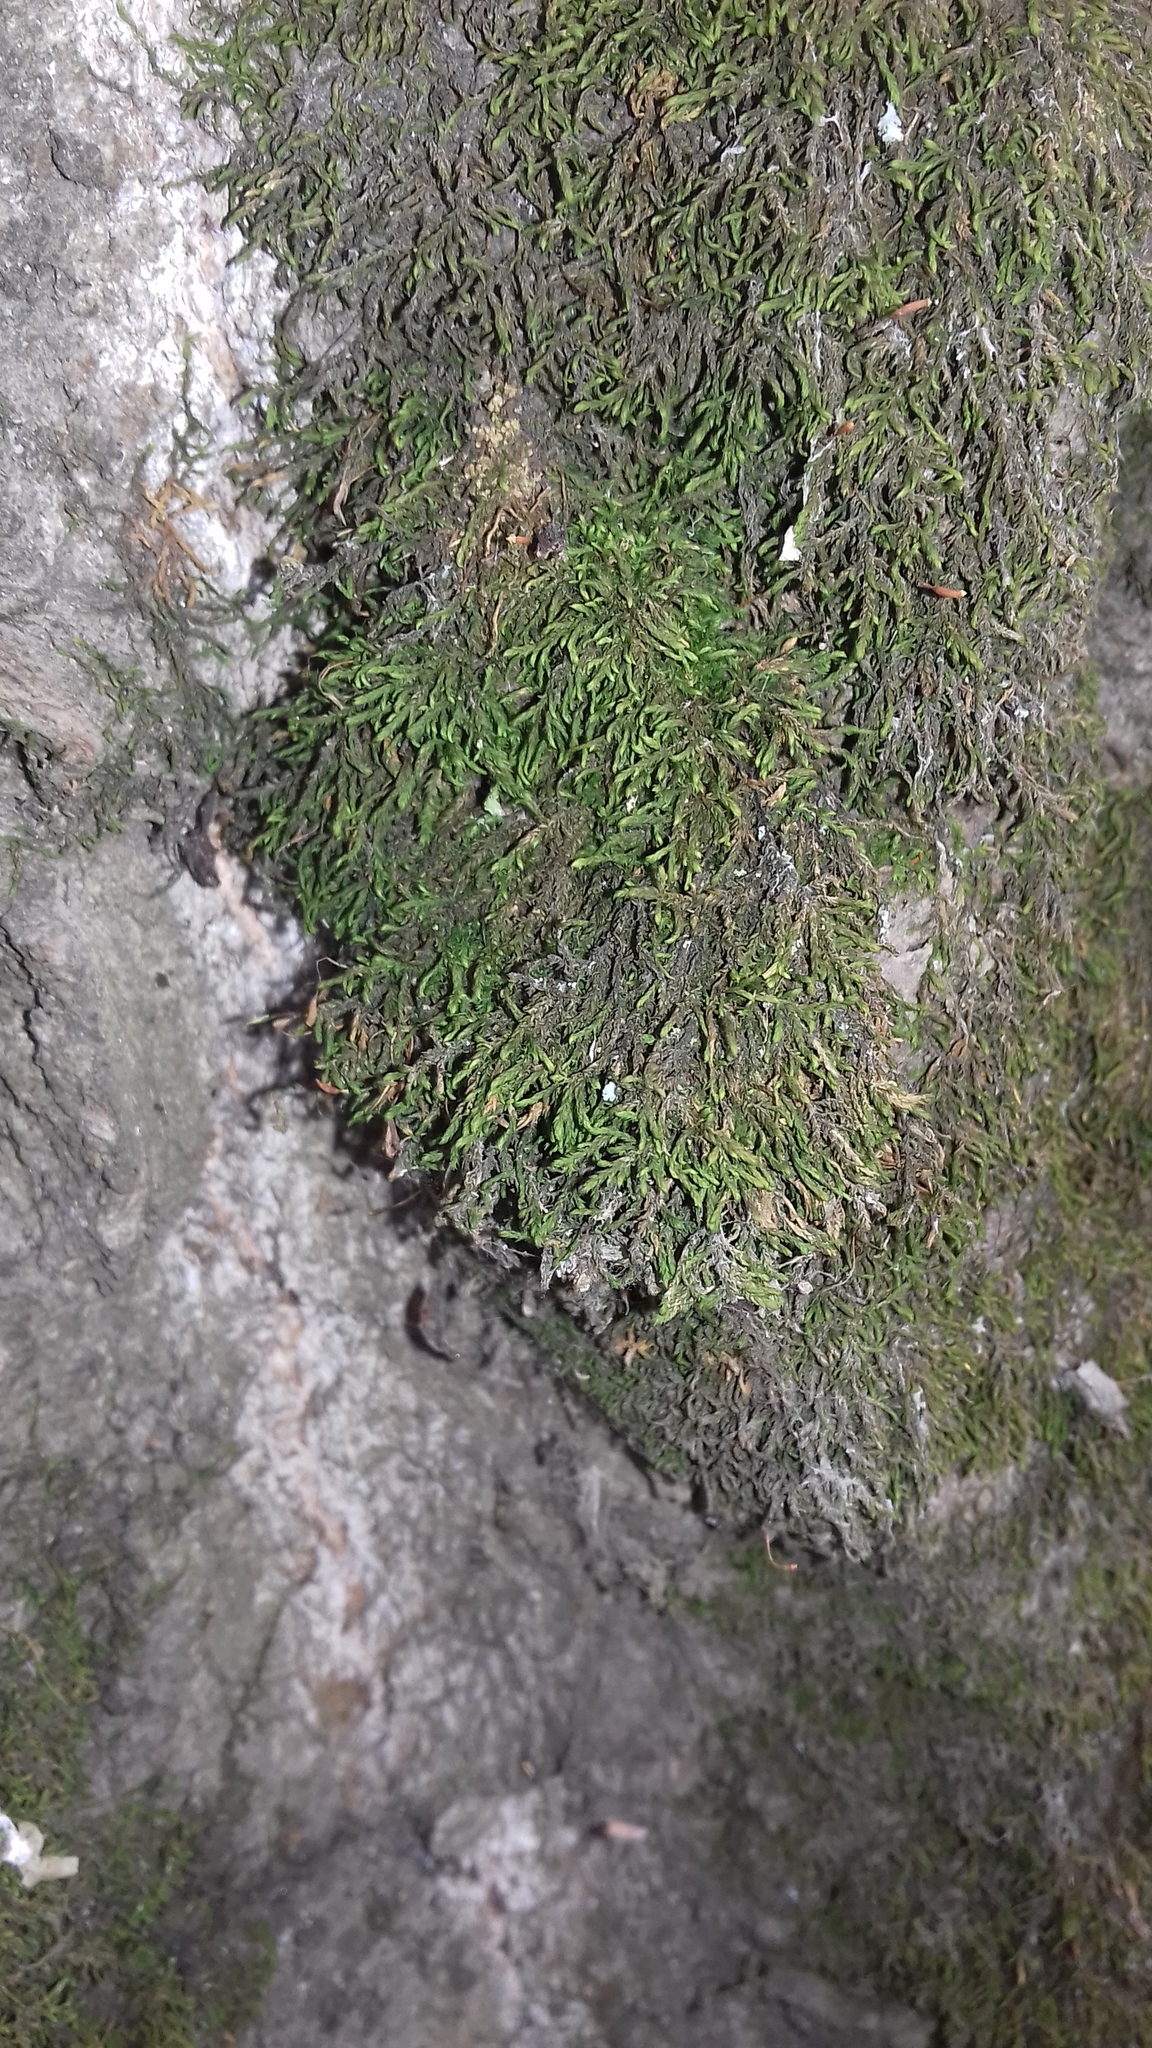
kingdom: Plantae
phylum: Bryophyta
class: Bryopsida
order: Hypnales
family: Leskeaceae
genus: Leskea
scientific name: Leskea polycarpa
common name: Many-fruited leske's moss
